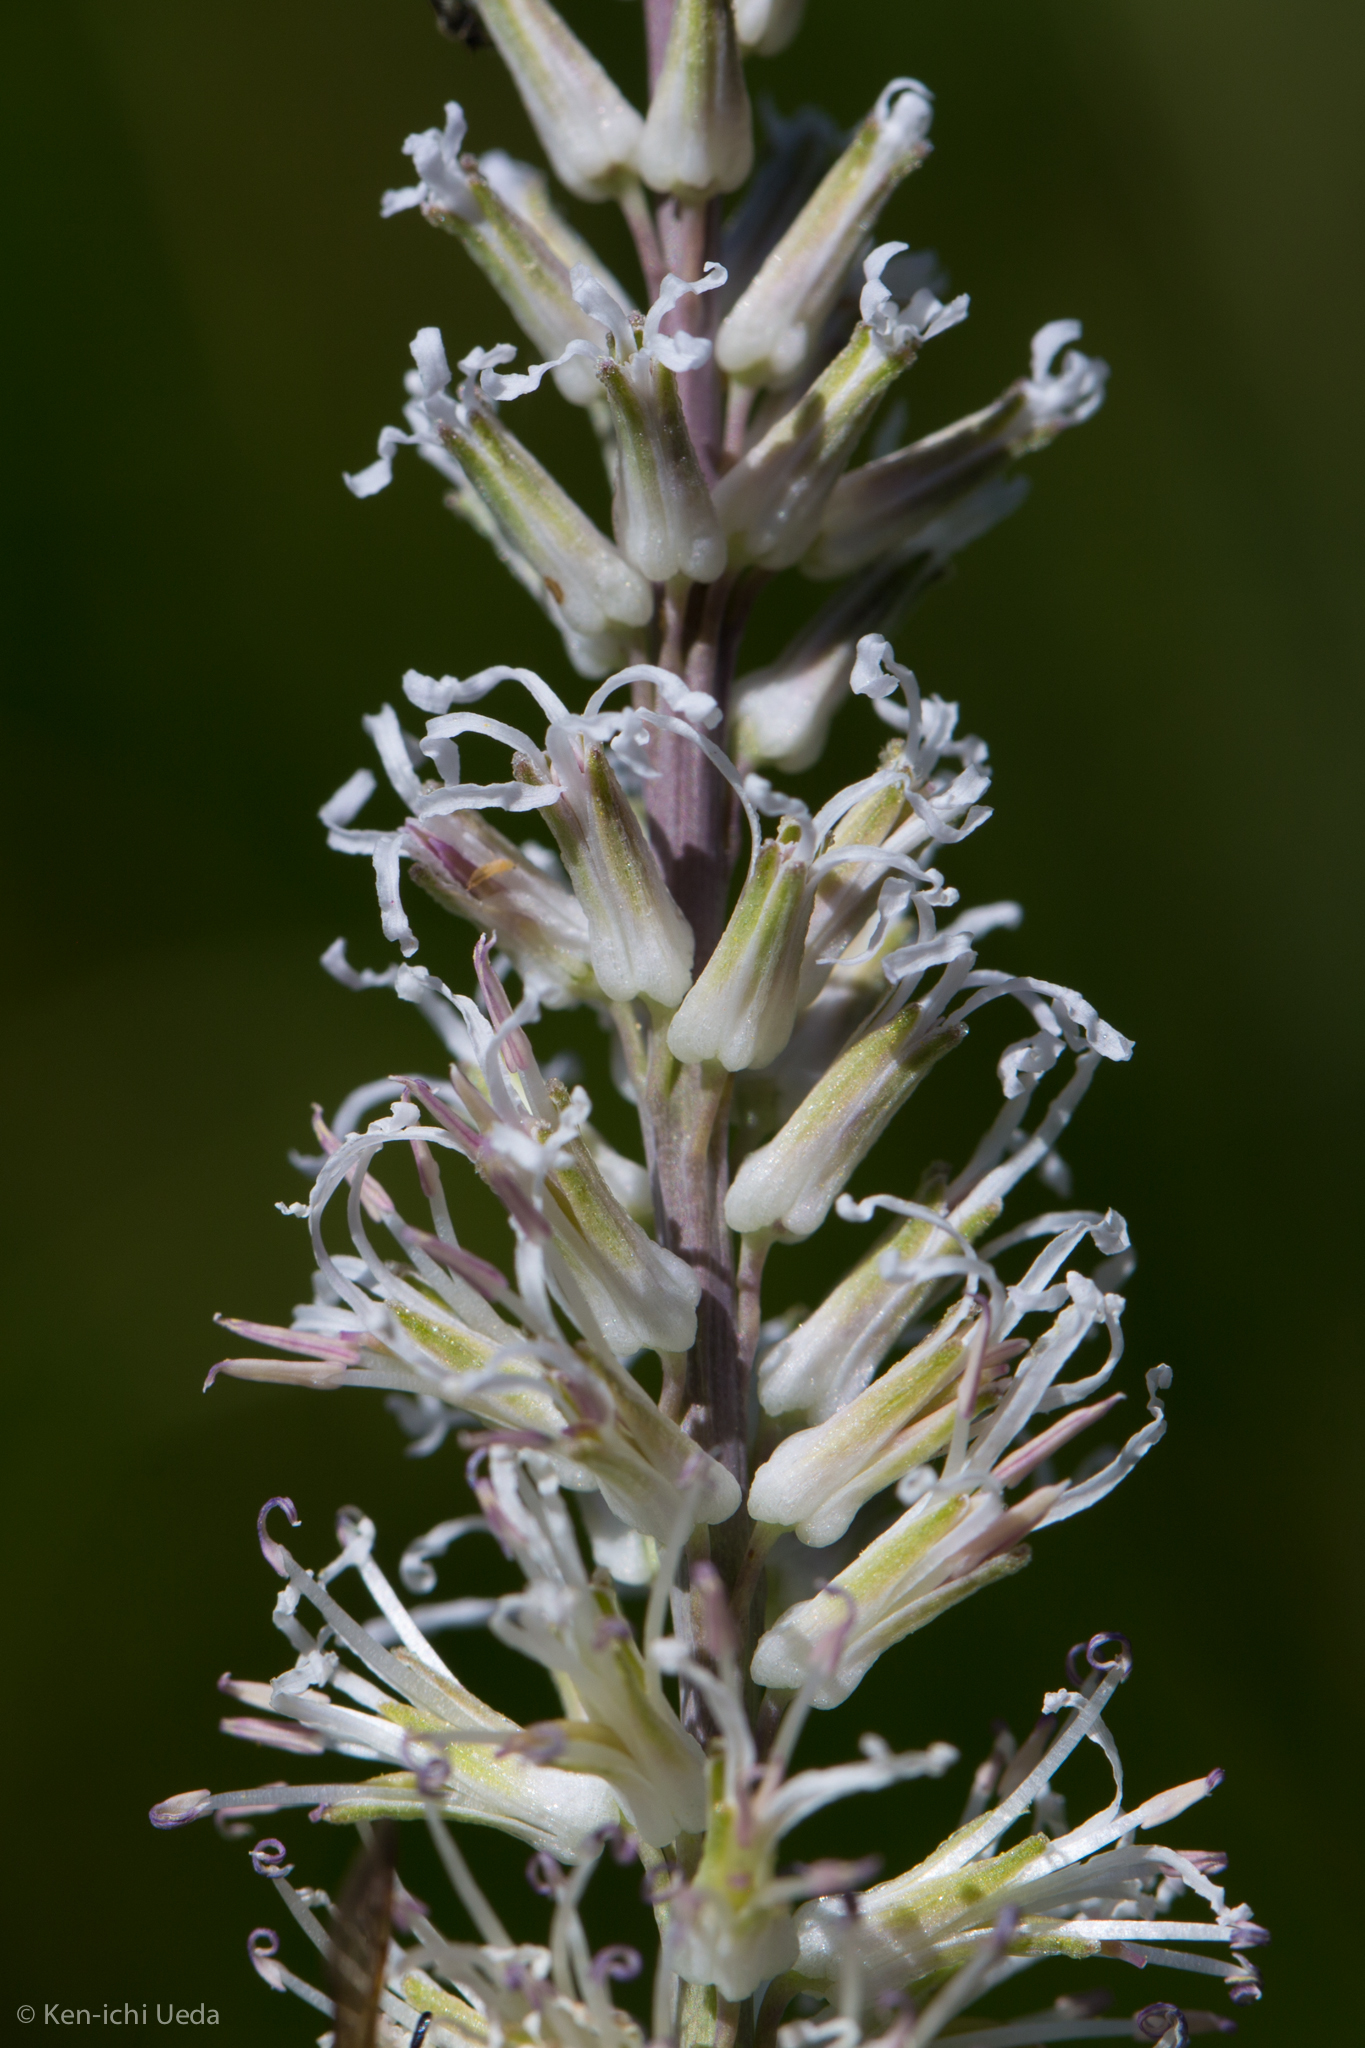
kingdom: Plantae
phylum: Tracheophyta
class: Magnoliopsida
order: Brassicales
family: Brassicaceae
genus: Thelypodium
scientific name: Thelypodium crispum
